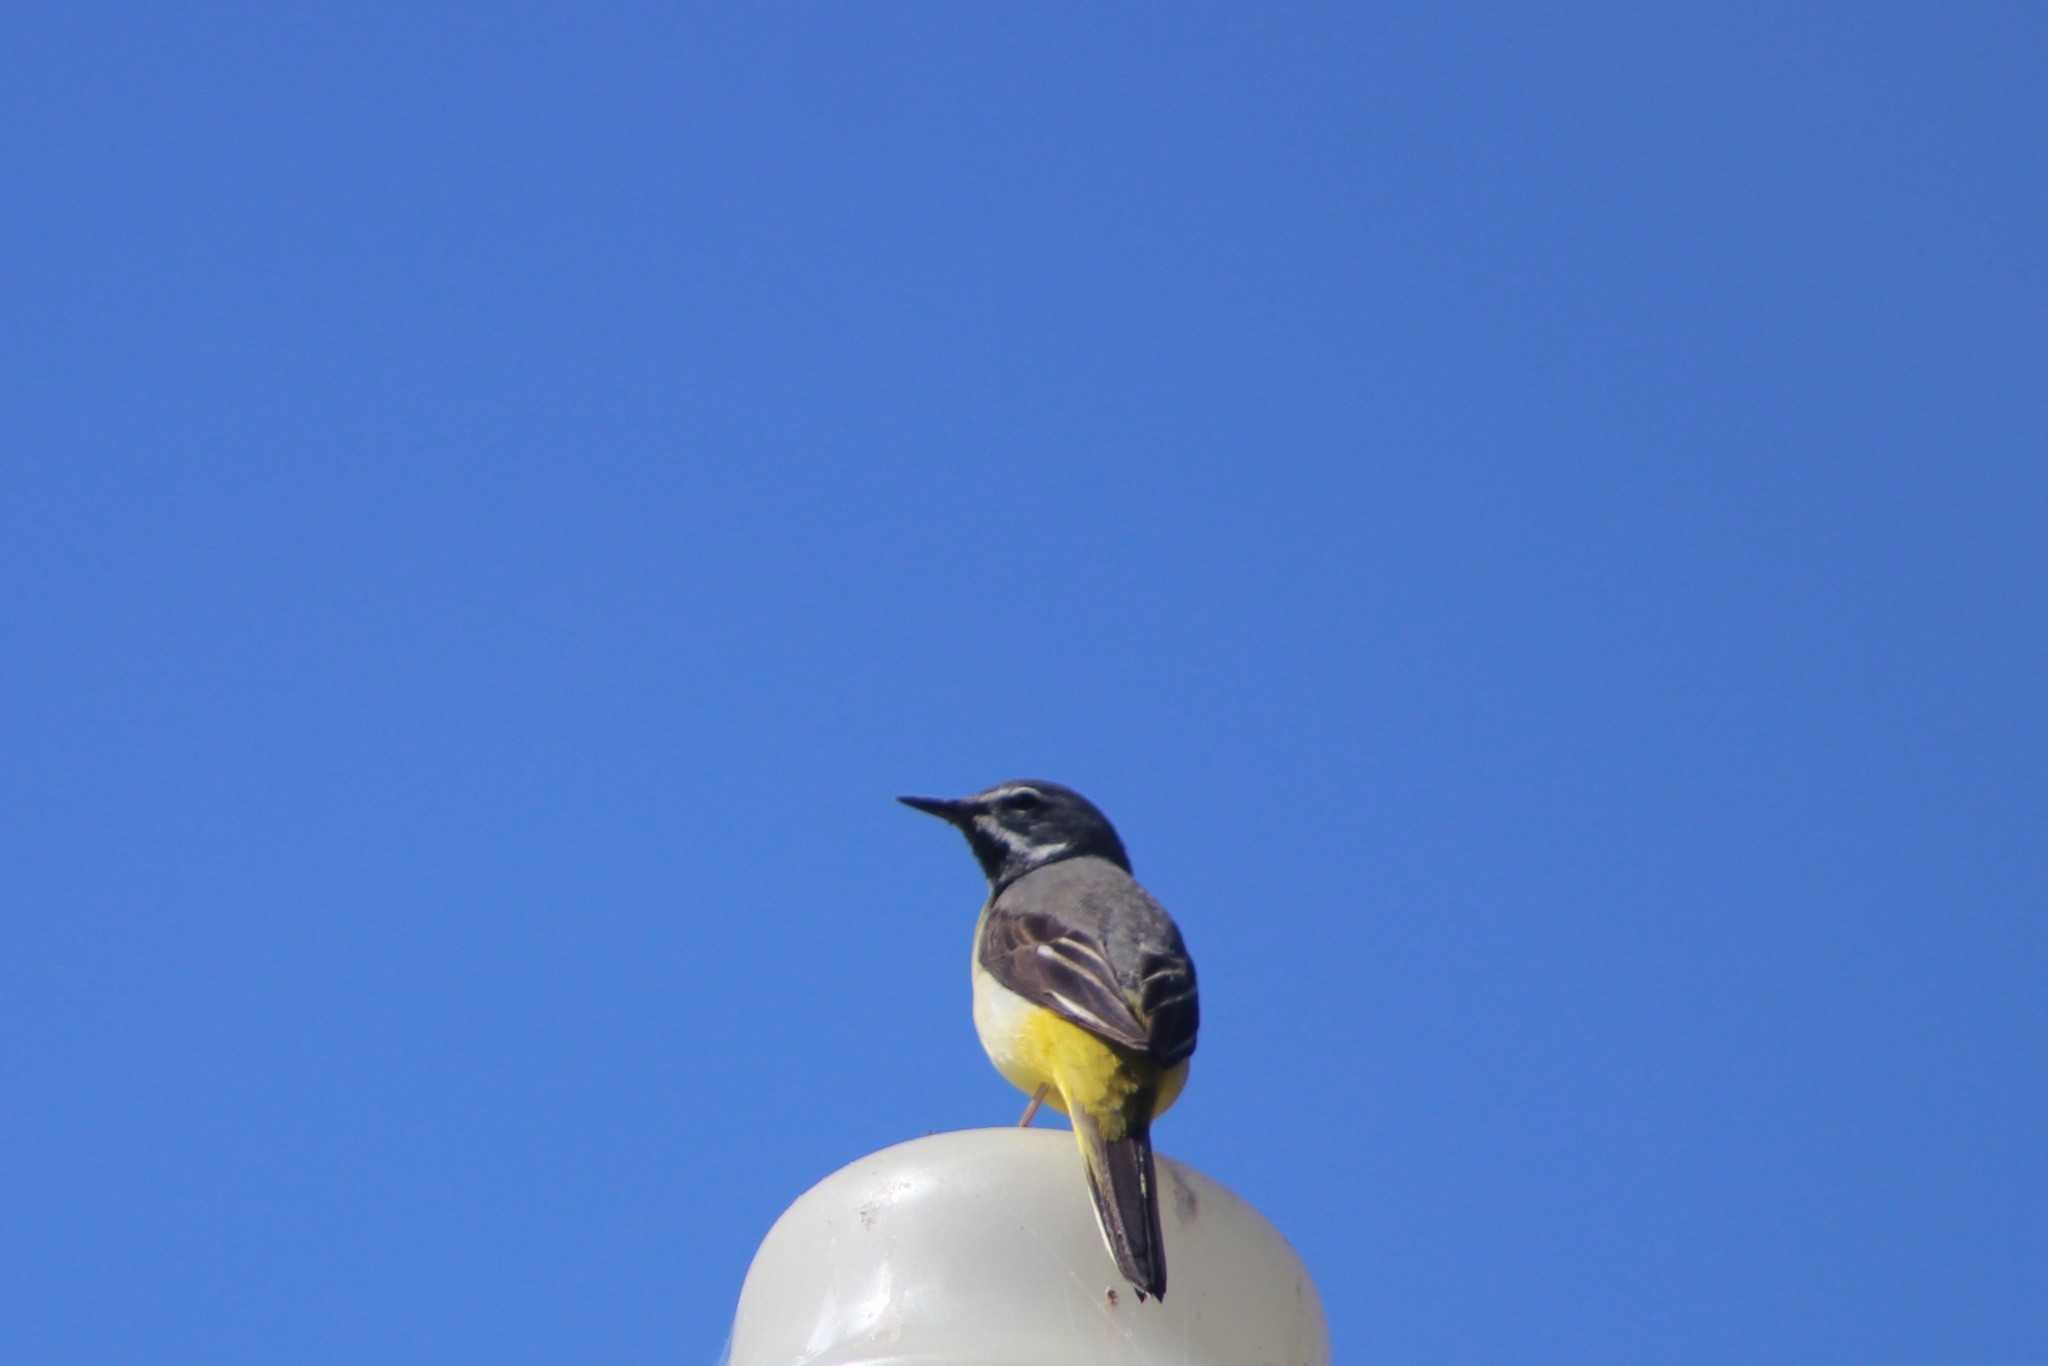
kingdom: Animalia
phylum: Chordata
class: Aves
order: Passeriformes
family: Motacillidae
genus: Motacilla
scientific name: Motacilla cinerea
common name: Grey wagtail
